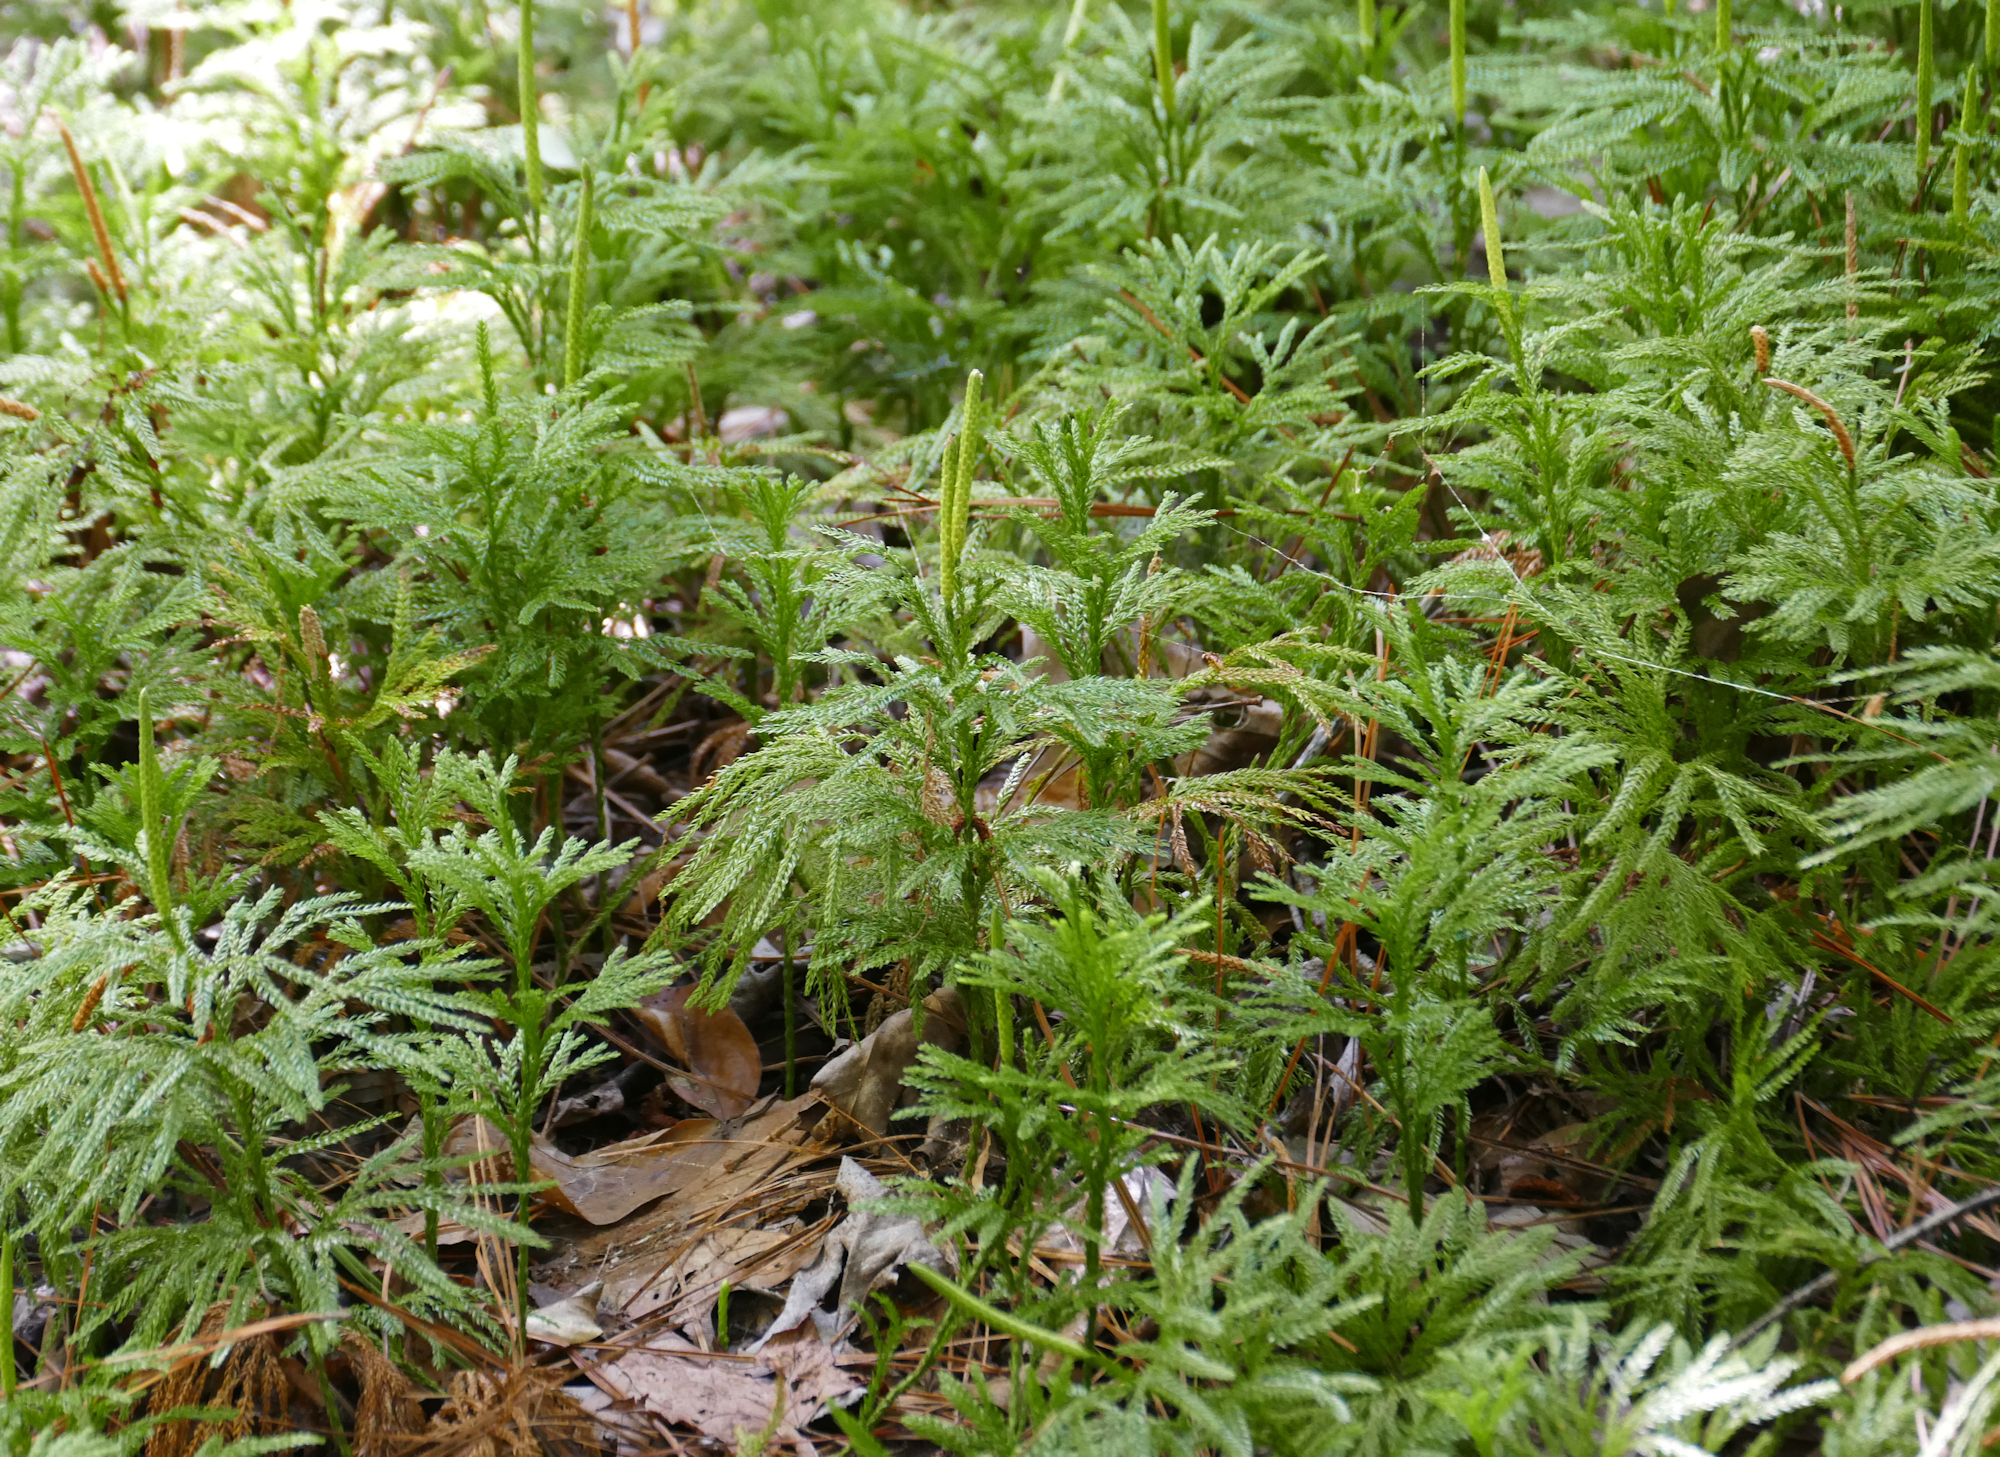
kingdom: Plantae
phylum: Tracheophyta
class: Lycopodiopsida
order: Lycopodiales
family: Lycopodiaceae
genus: Dendrolycopodium
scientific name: Dendrolycopodium obscurum
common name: Common ground-pine
